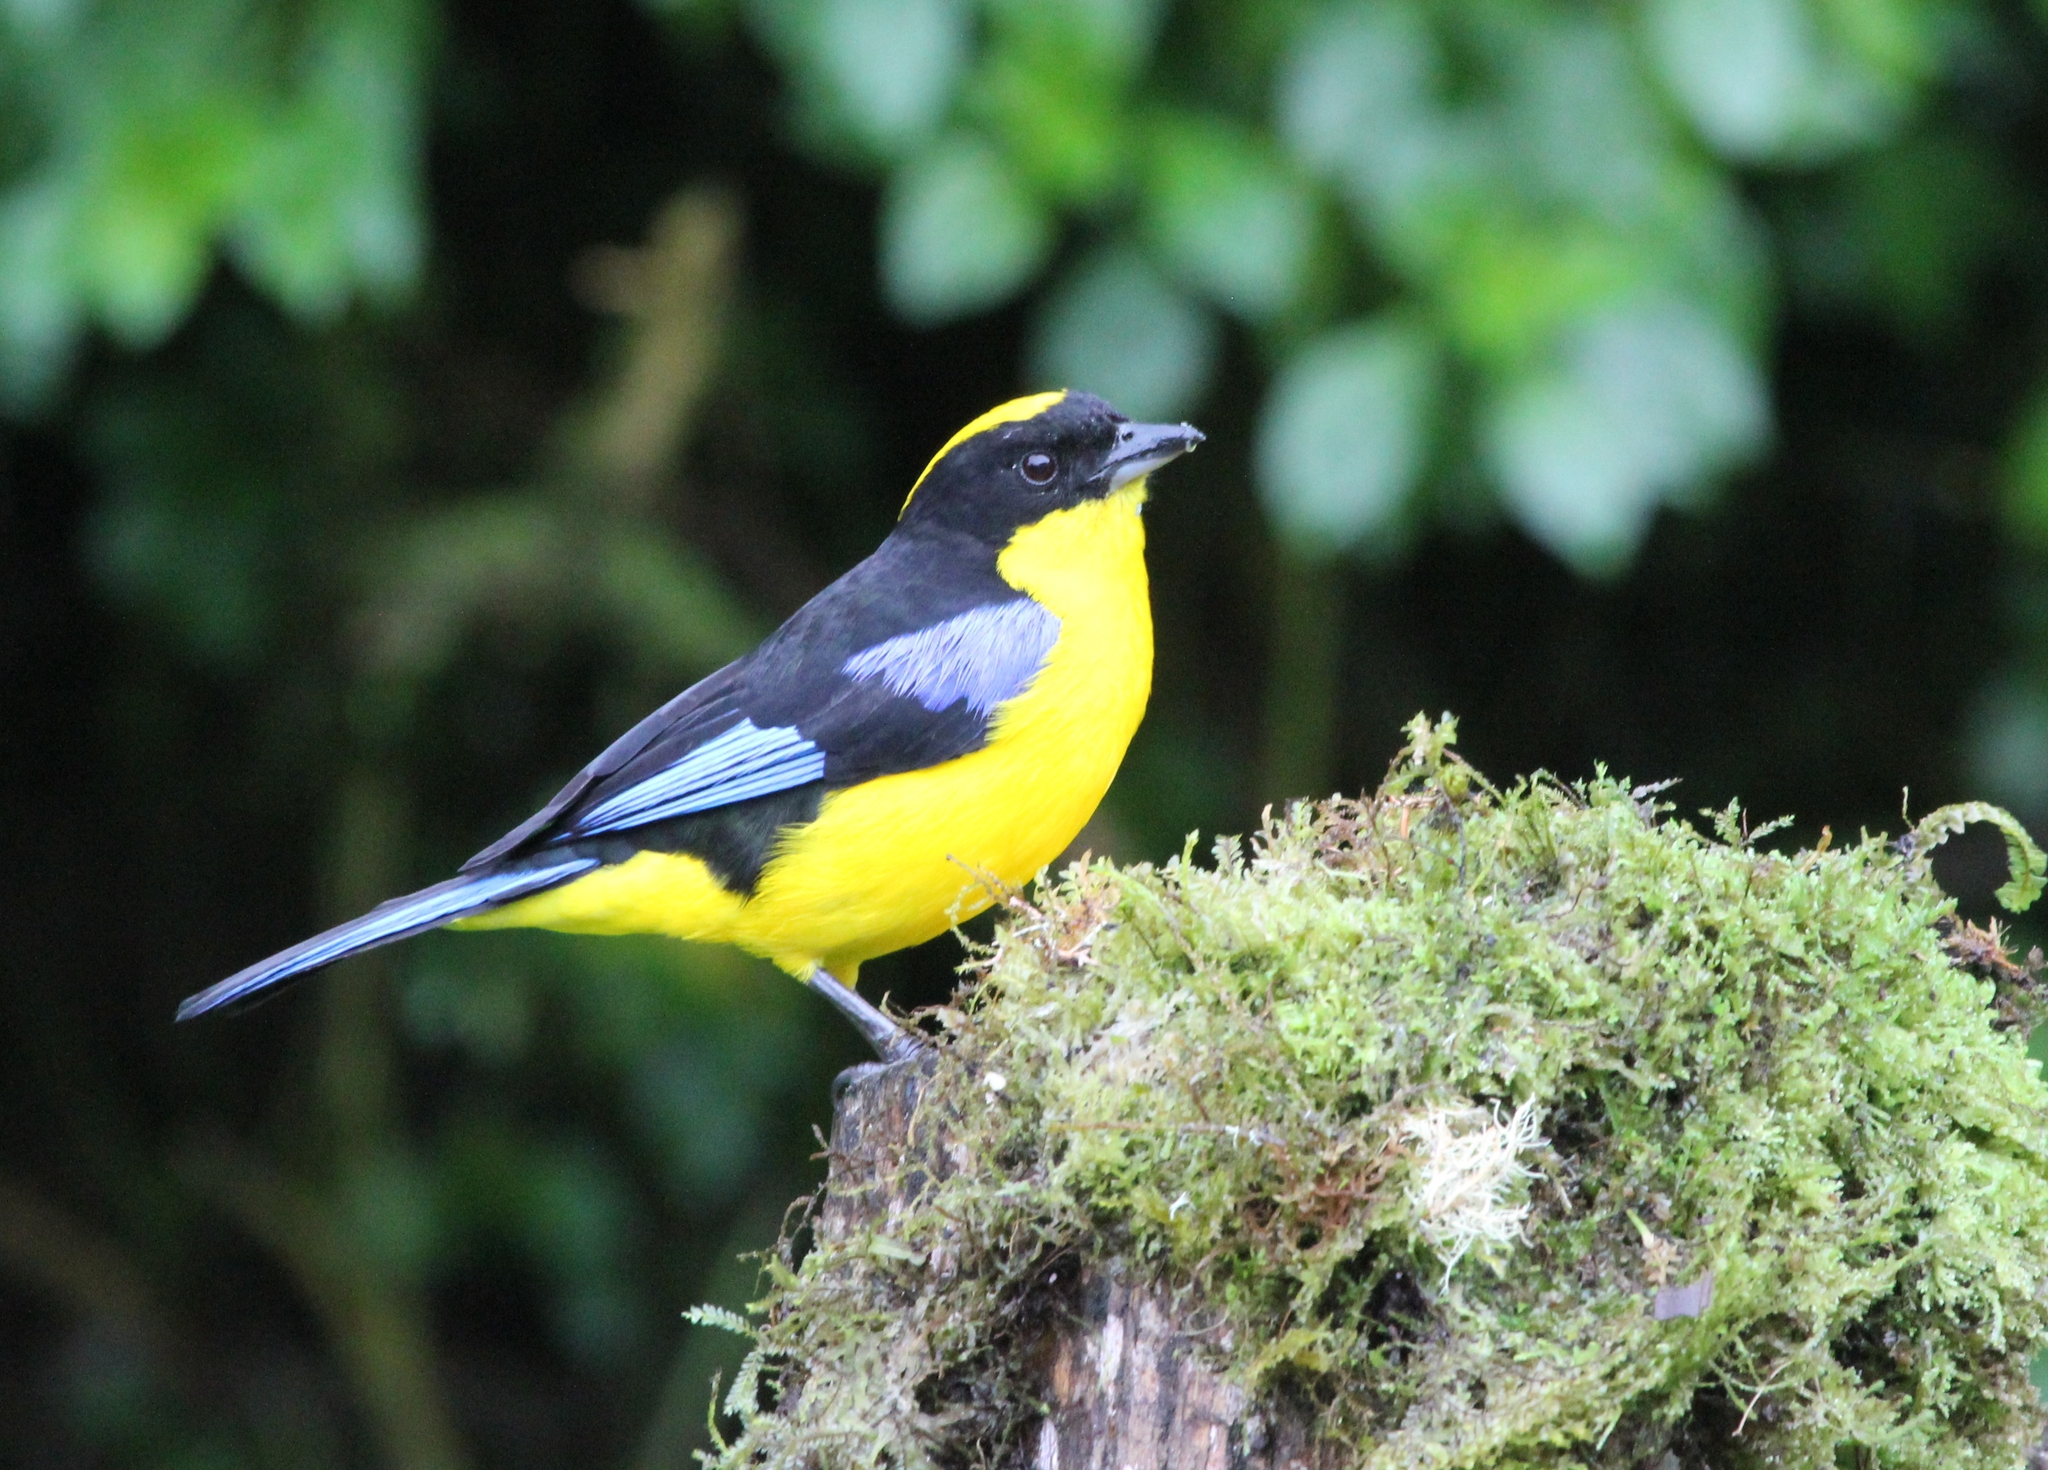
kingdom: Animalia
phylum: Chordata
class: Aves
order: Passeriformes
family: Thraupidae
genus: Anisognathus
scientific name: Anisognathus somptuosus
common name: Blue-winged mountain-tanager
